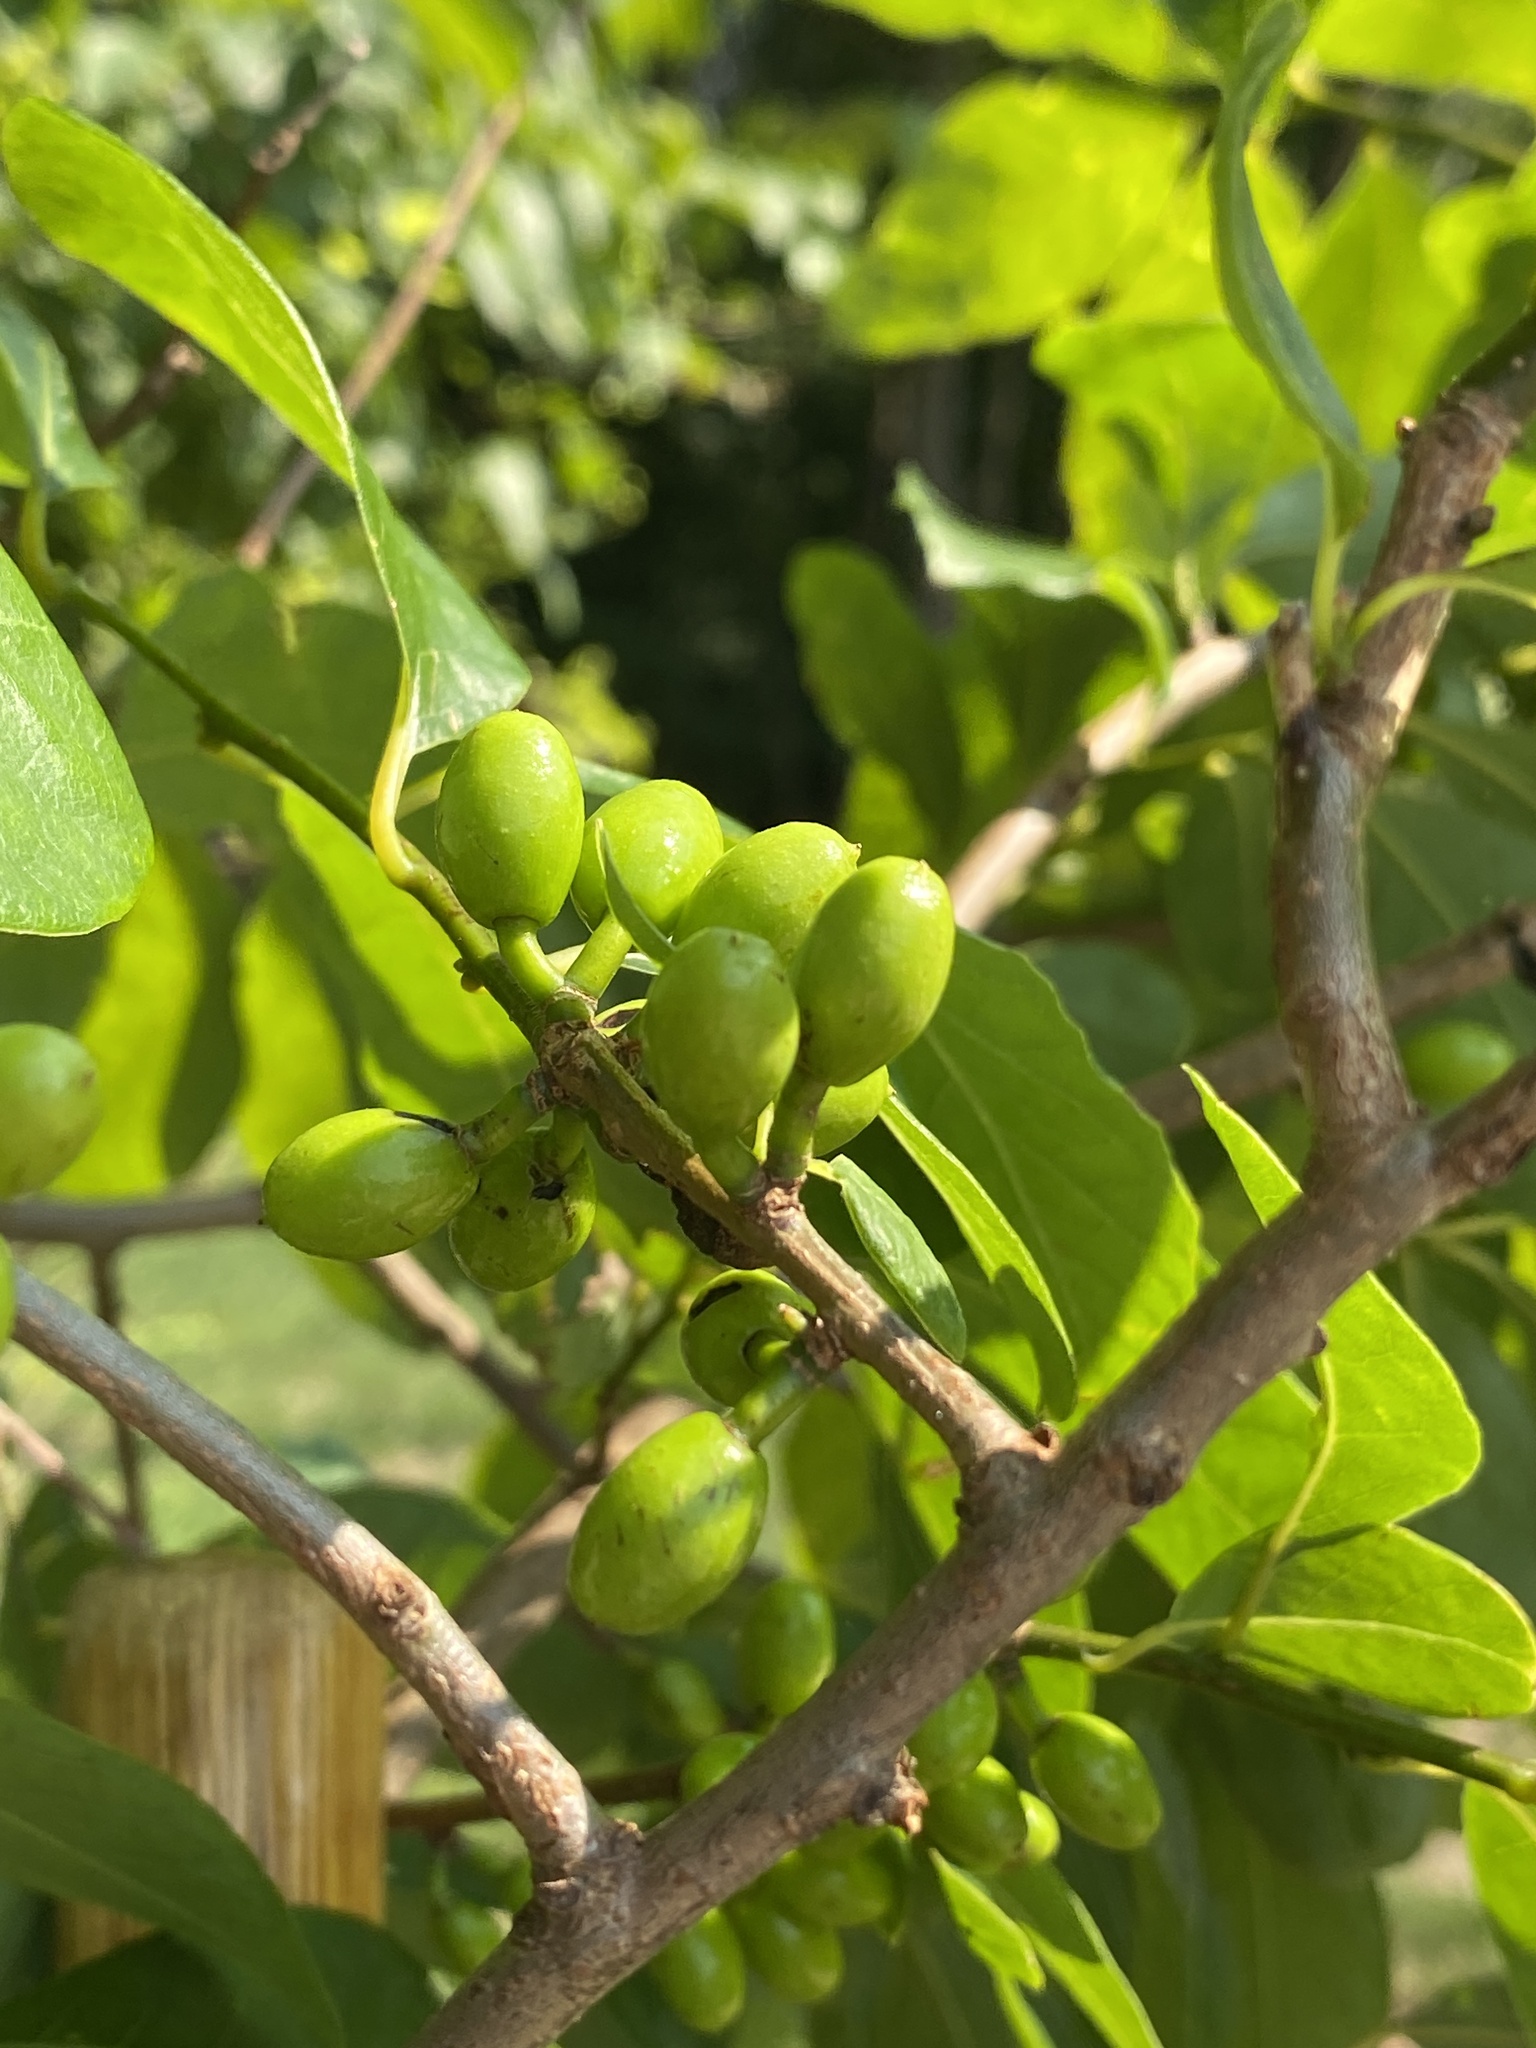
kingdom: Plantae
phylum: Tracheophyta
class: Magnoliopsida
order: Laurales
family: Lauraceae
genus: Lindera
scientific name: Lindera benzoin
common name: Spicebush
